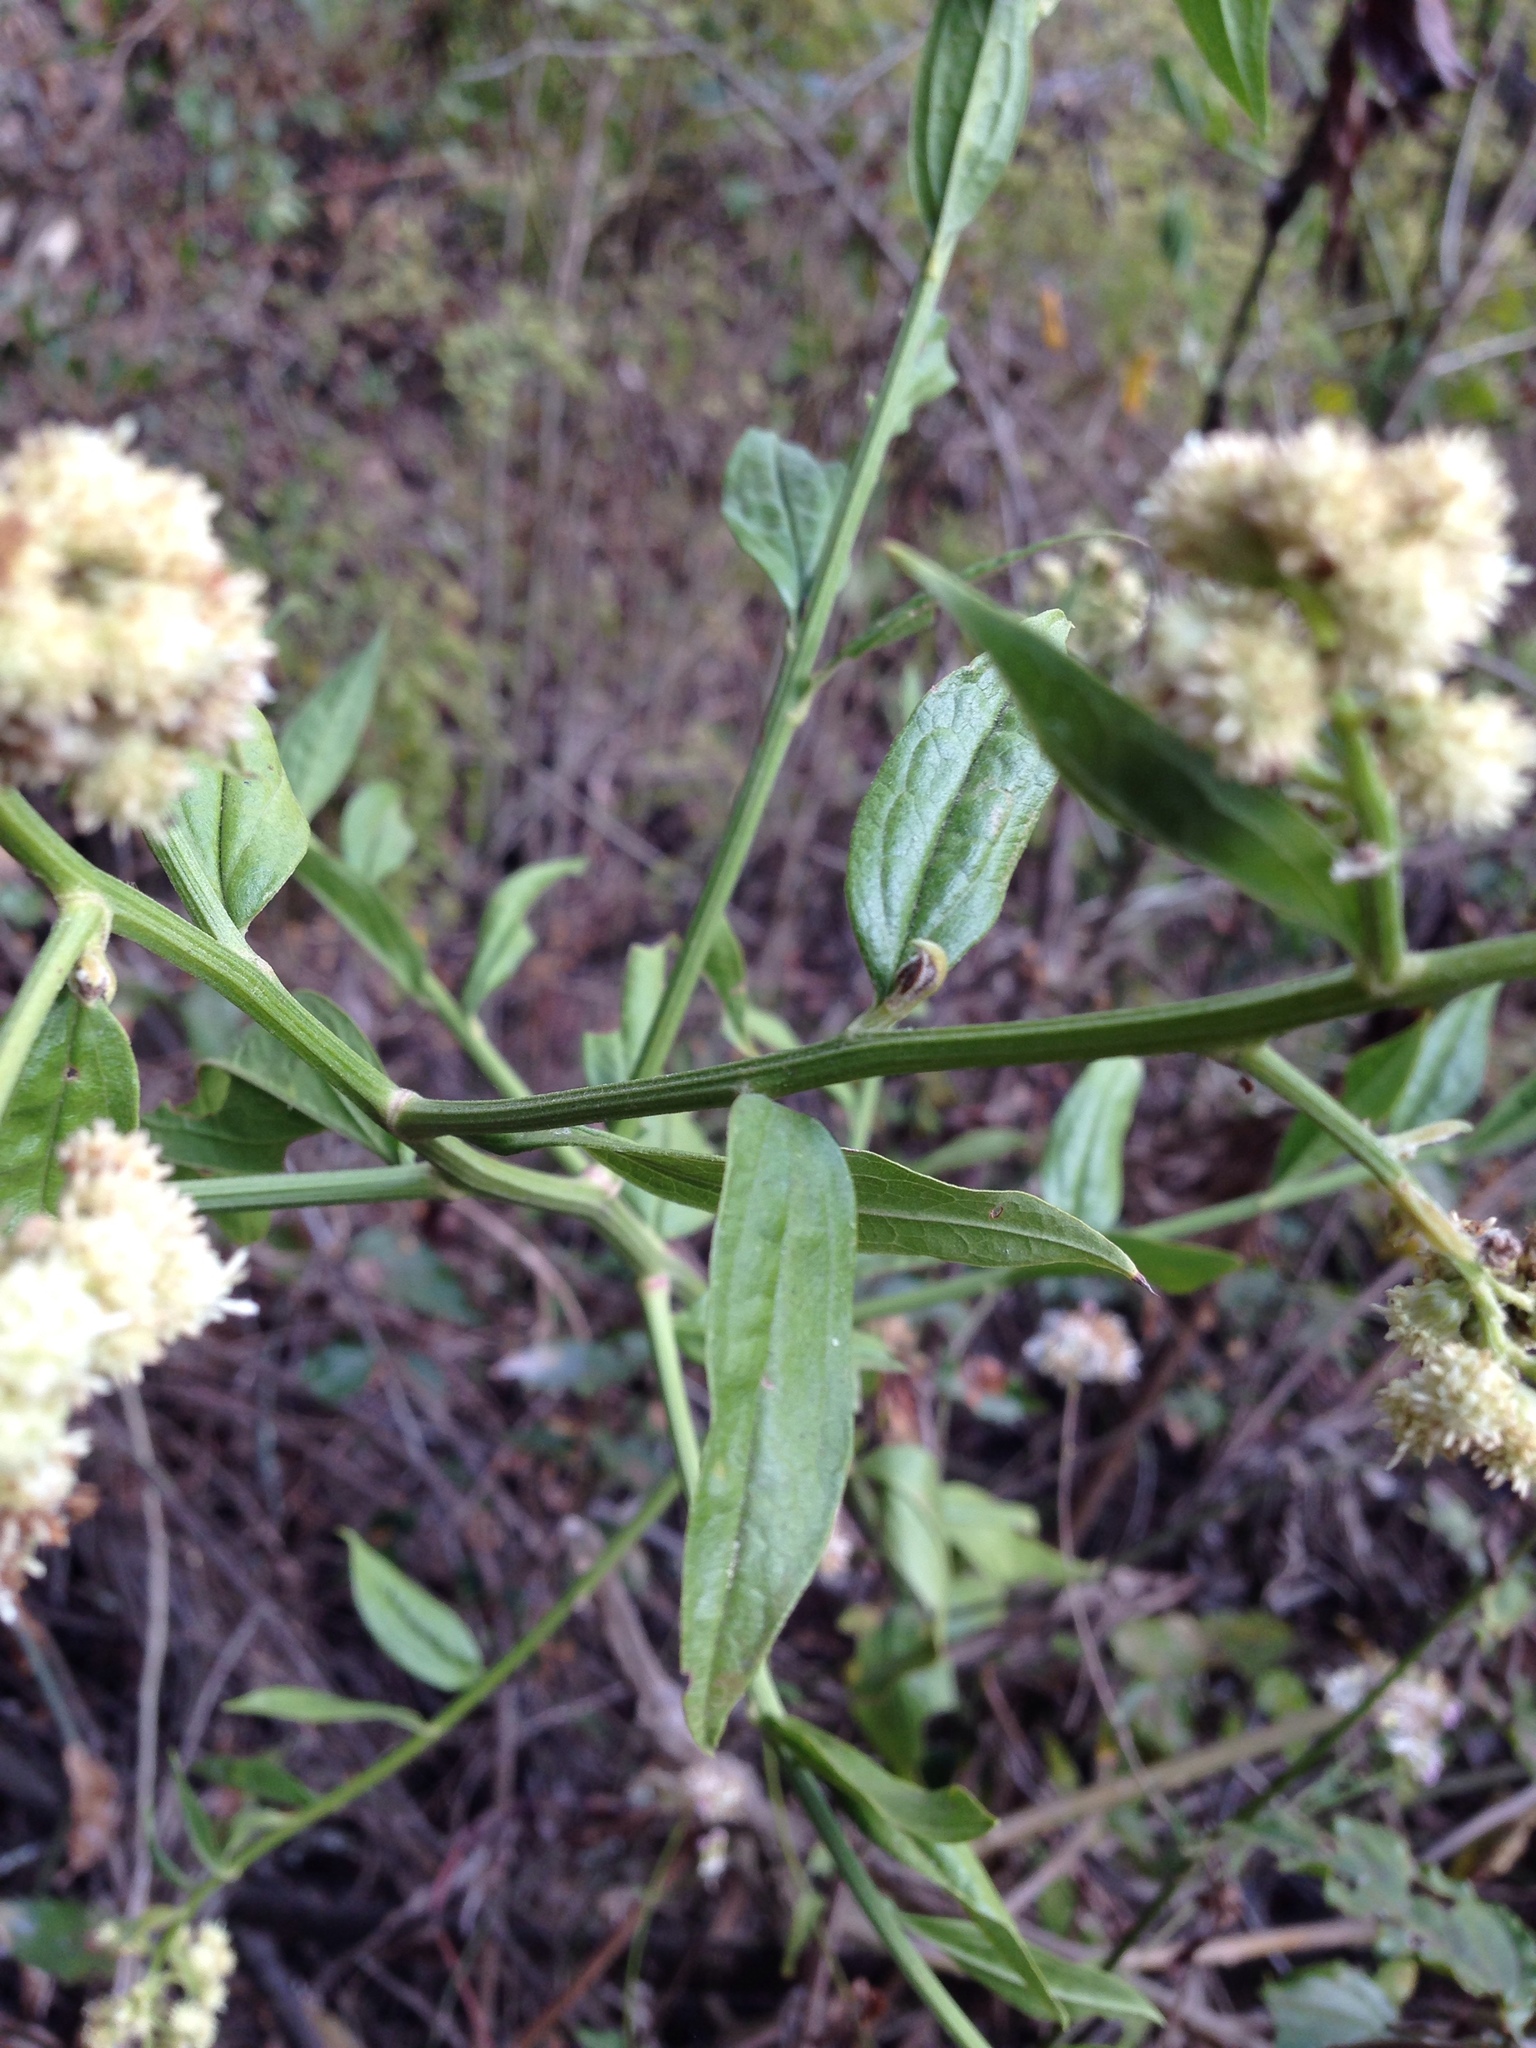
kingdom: Plantae
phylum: Tracheophyta
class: Magnoliopsida
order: Asterales
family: Asteraceae
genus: Baccharis
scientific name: Baccharis trinervis
